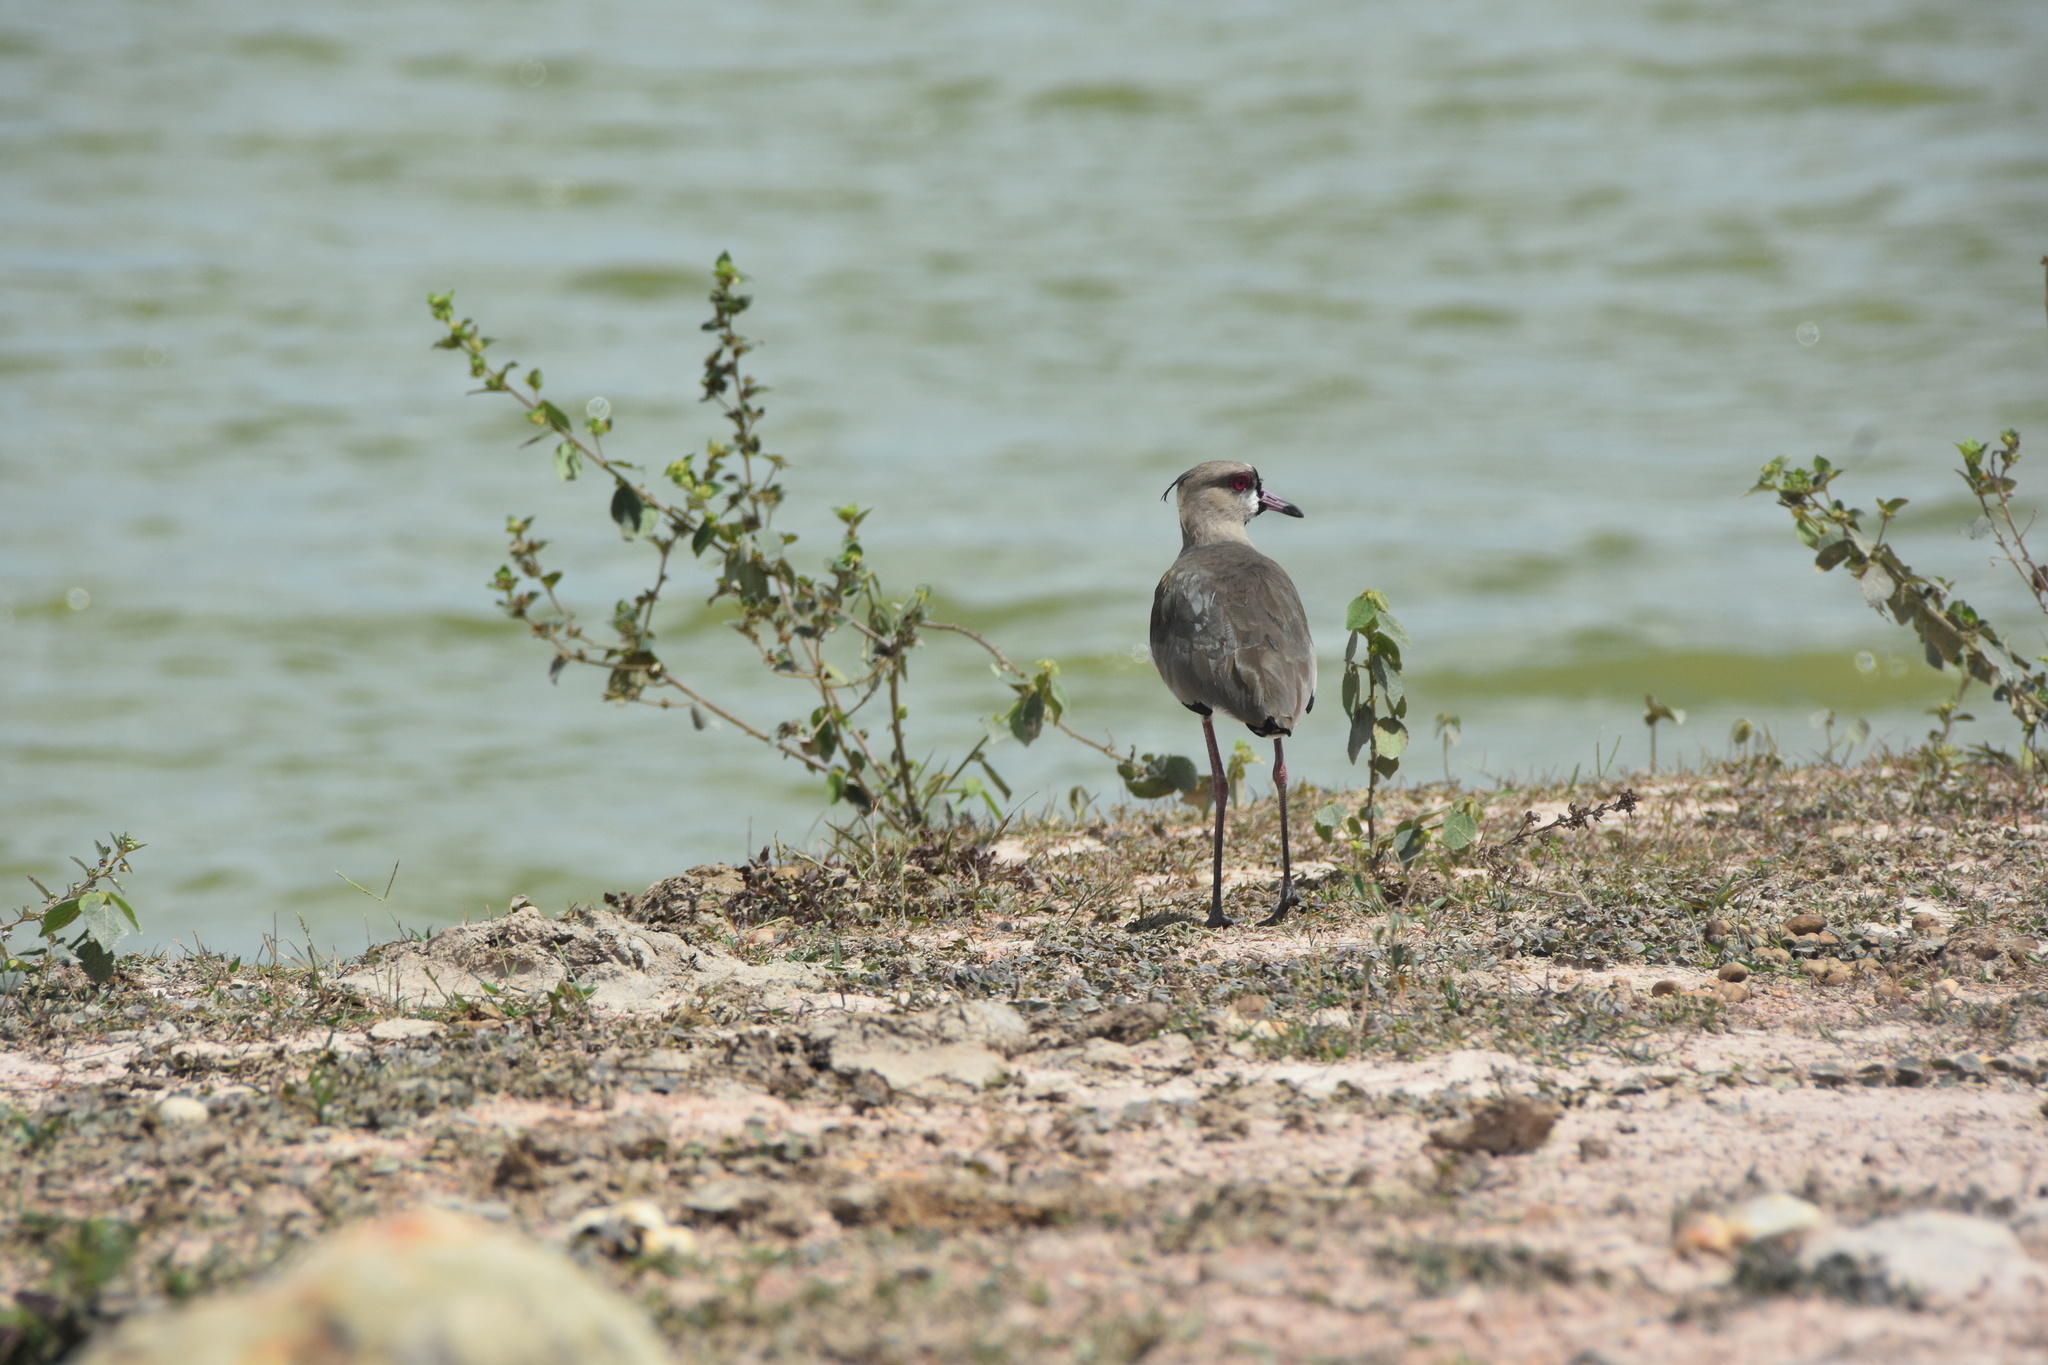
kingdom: Animalia
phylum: Chordata
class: Aves
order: Charadriiformes
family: Charadriidae
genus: Vanellus
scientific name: Vanellus chilensis
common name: Southern lapwing
